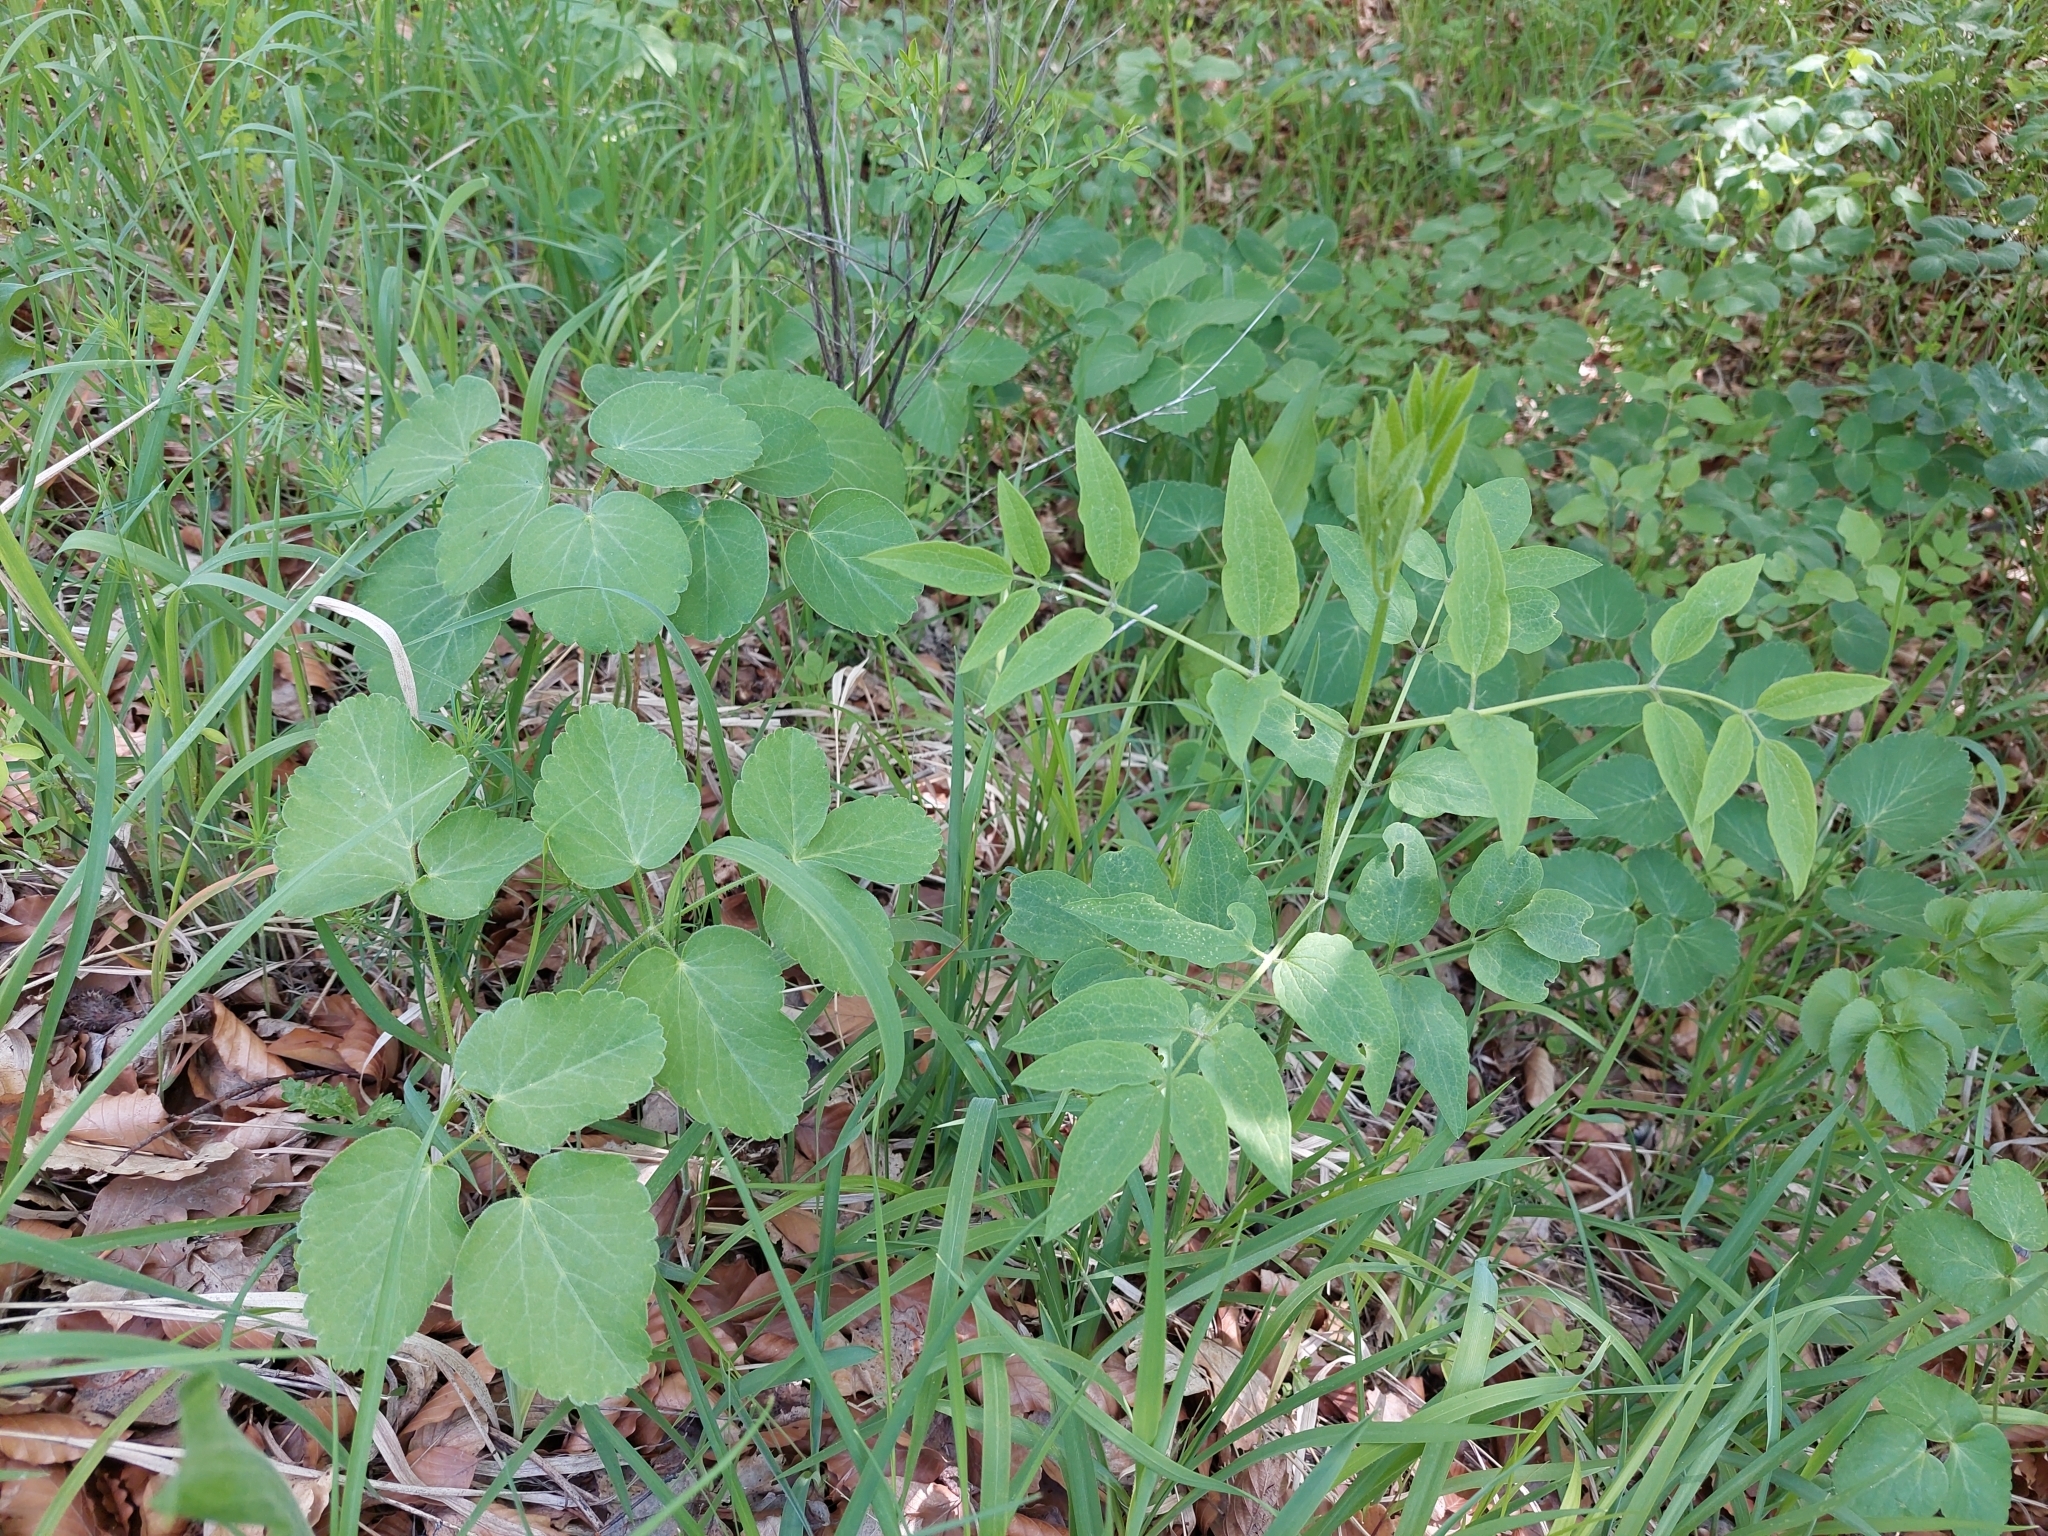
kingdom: Plantae
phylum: Tracheophyta
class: Magnoliopsida
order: Apiales
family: Apiaceae
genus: Laserpitium
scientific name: Laserpitium latifolium
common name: Broadleaf sermountain
